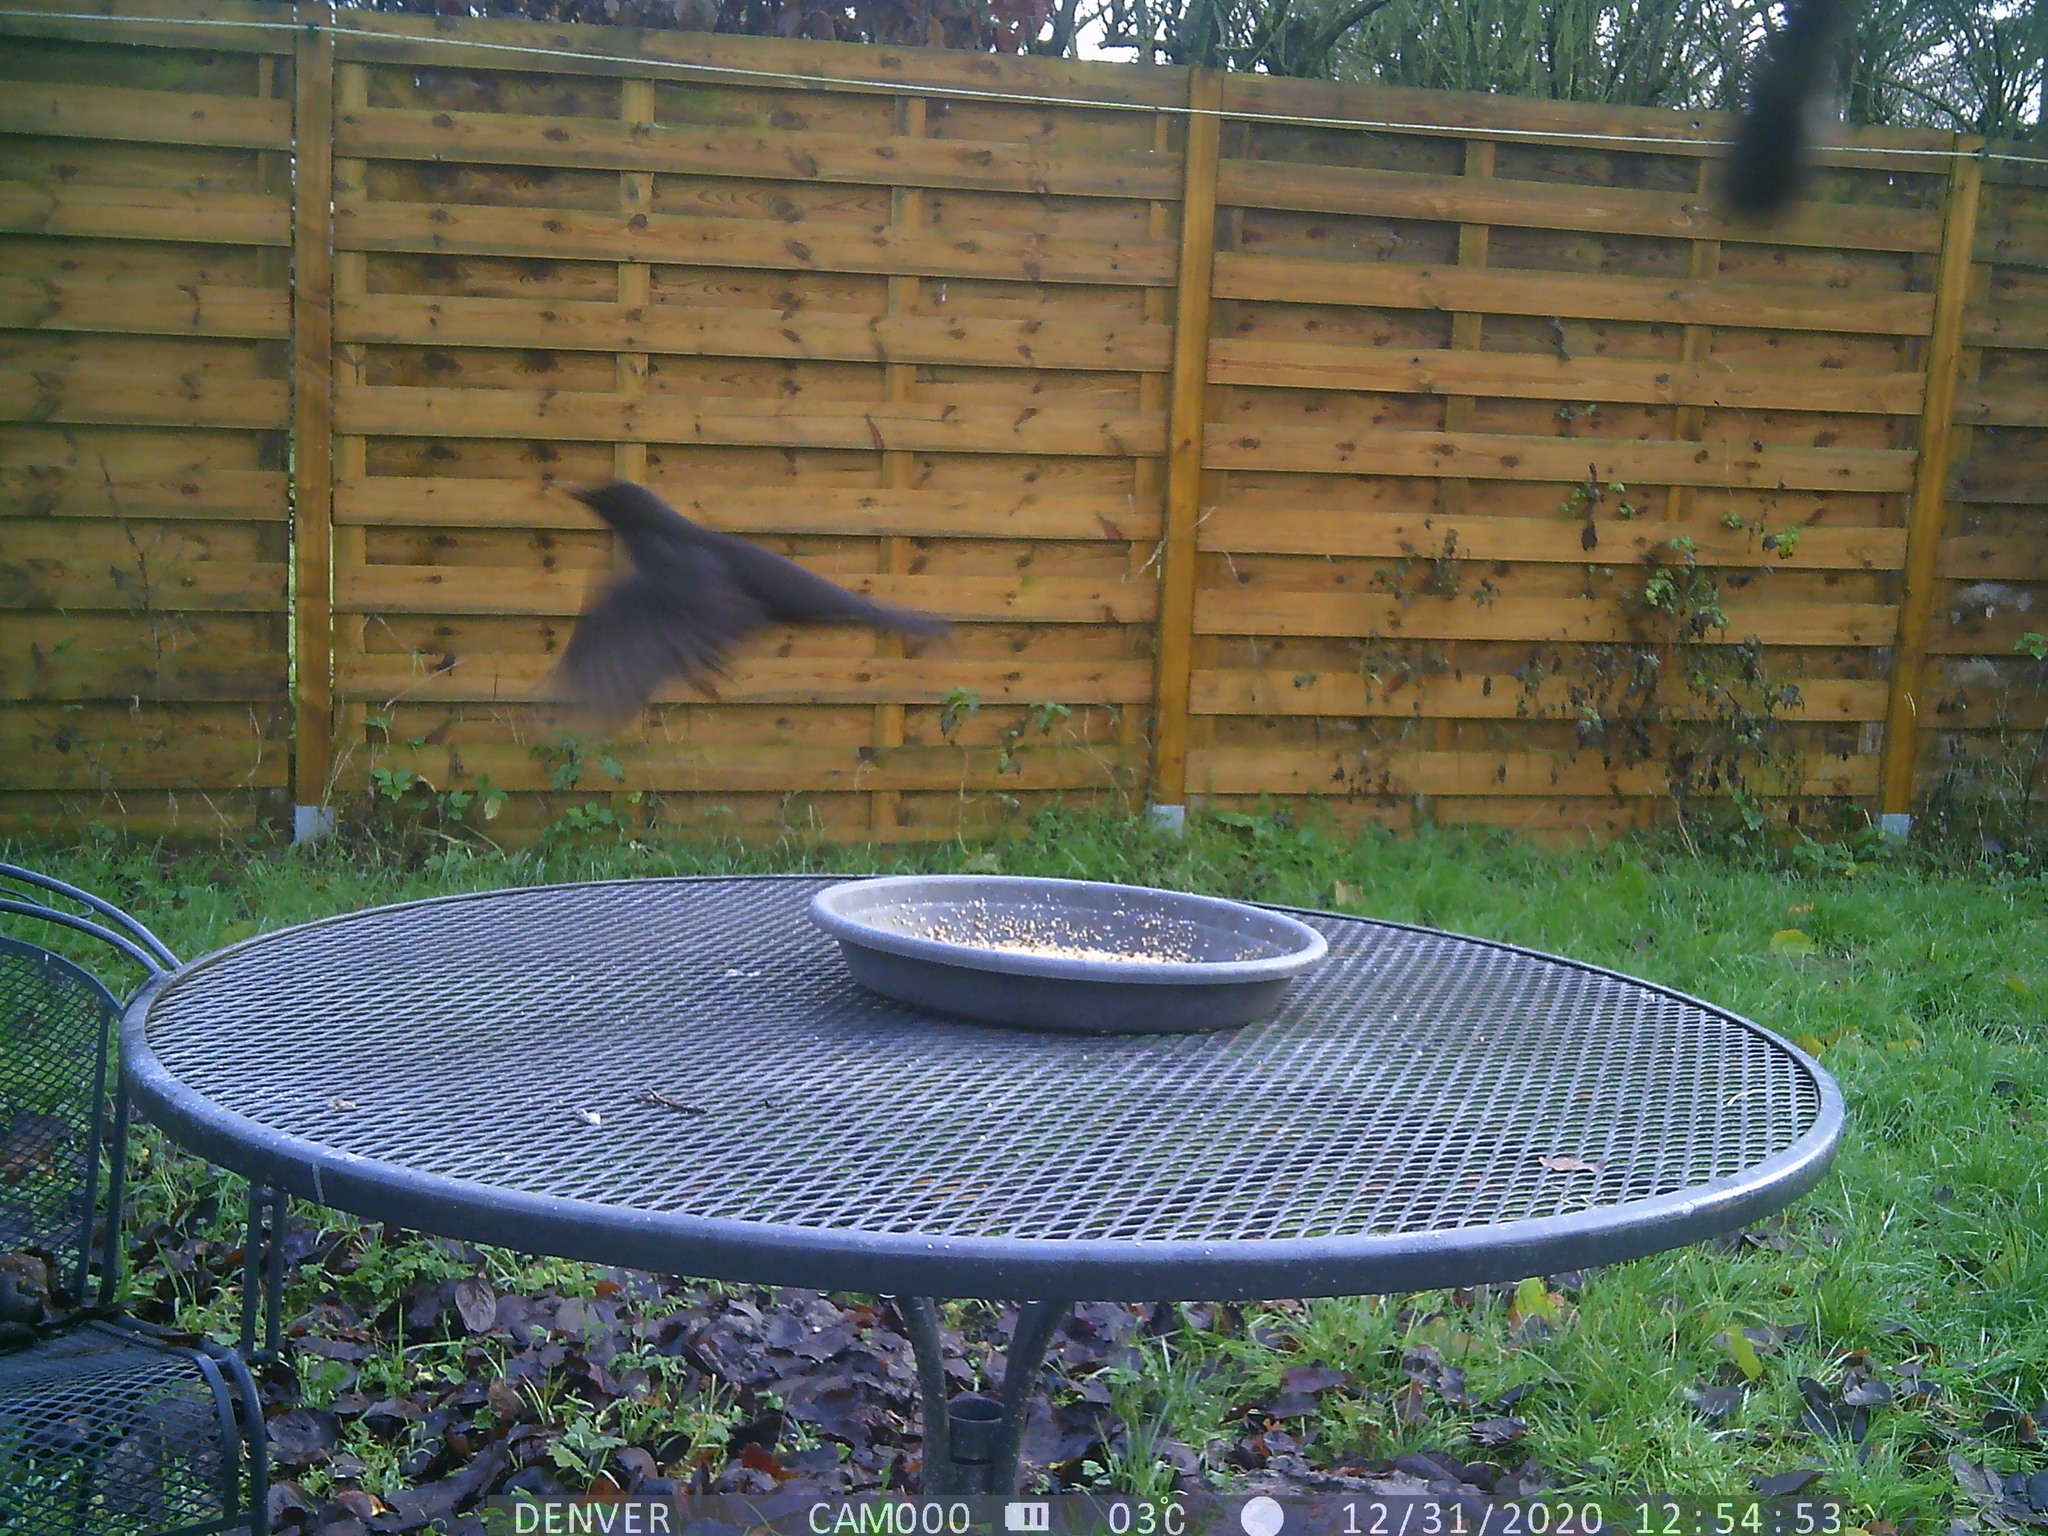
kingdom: Animalia
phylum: Chordata
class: Aves
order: Passeriformes
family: Turdidae
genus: Turdus
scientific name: Turdus merula
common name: Common blackbird
